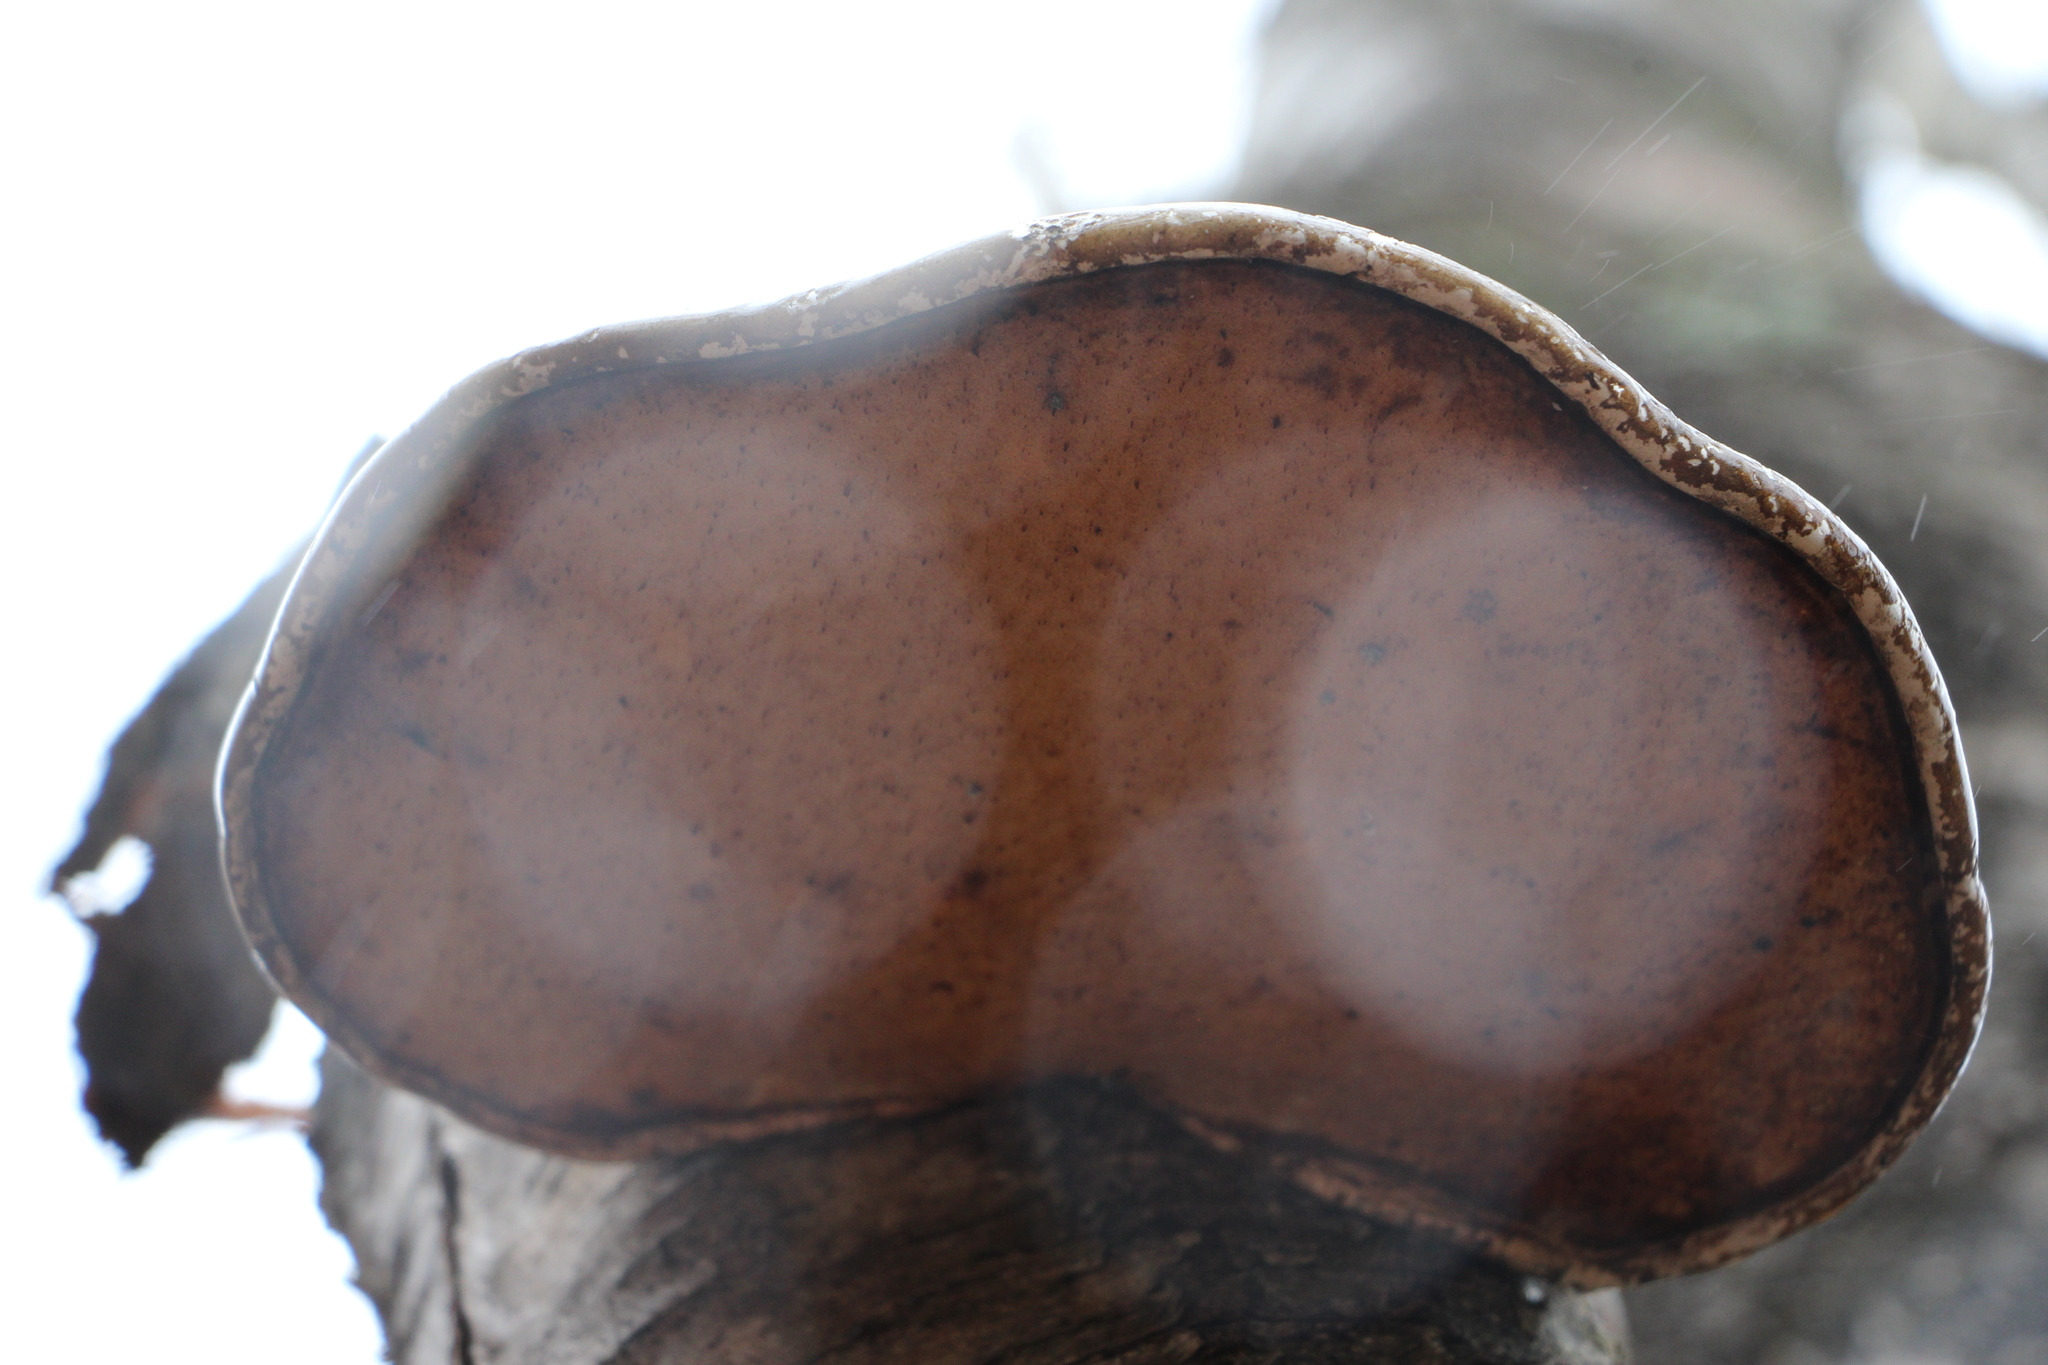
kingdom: Fungi
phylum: Basidiomycota
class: Agaricomycetes
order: Polyporales
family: Fomitopsidaceae
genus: Fomitopsis
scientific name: Fomitopsis betulina
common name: Birch polypore
